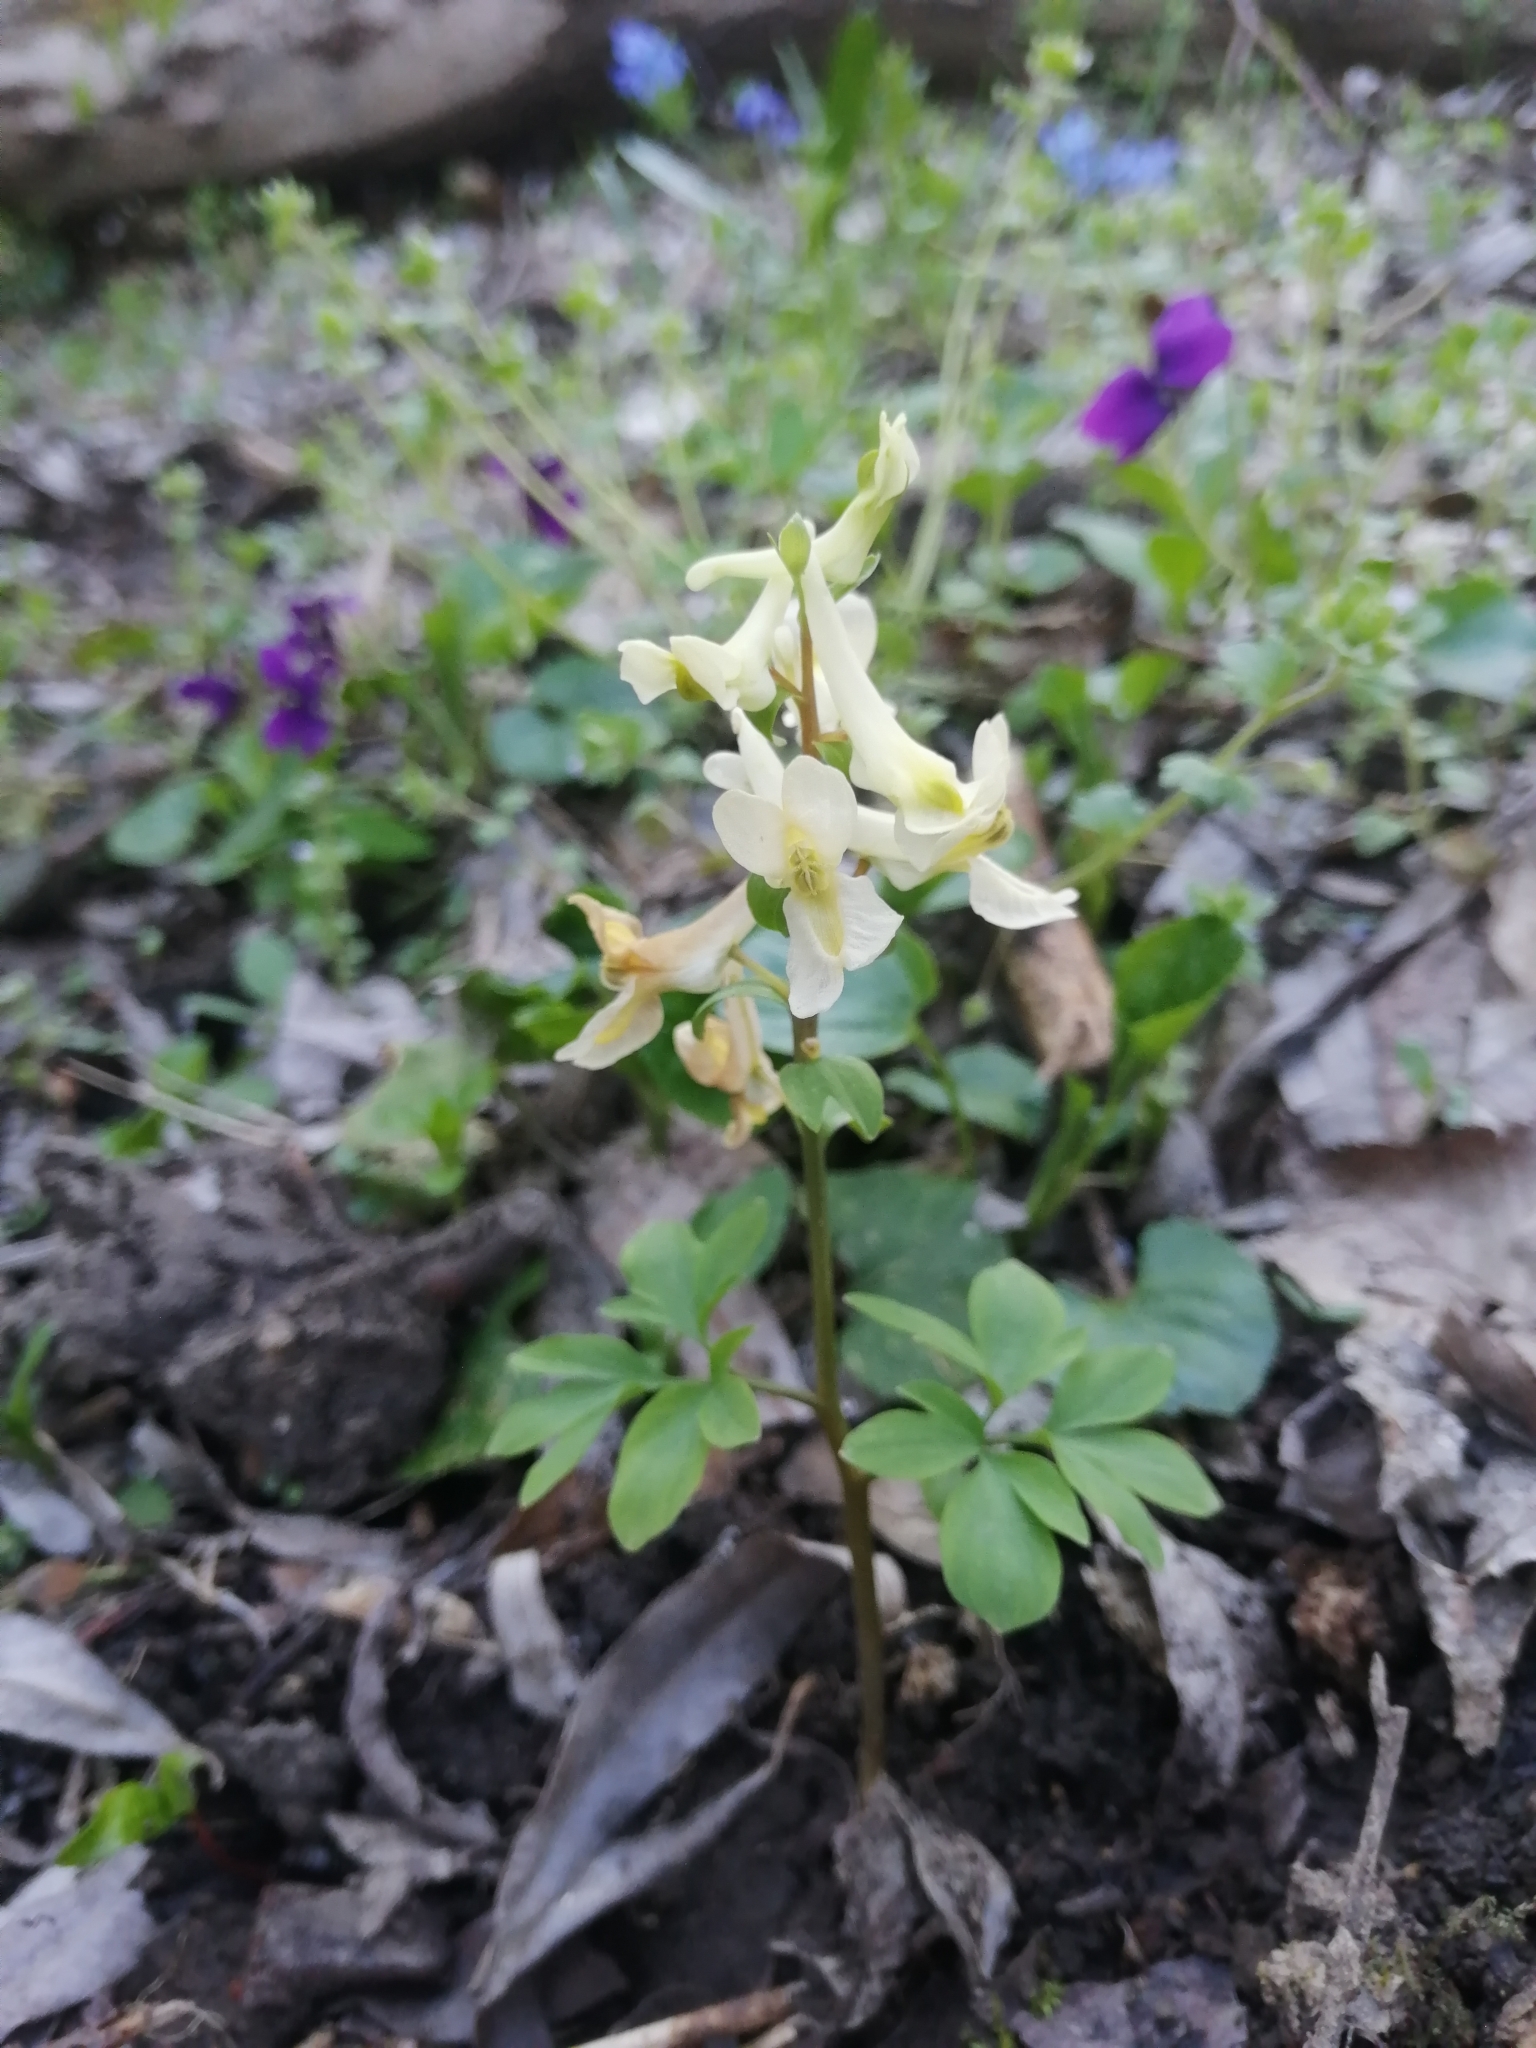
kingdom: Plantae
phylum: Tracheophyta
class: Magnoliopsida
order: Ranunculales
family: Papaveraceae
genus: Corydalis
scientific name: Corydalis cava
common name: Hollowroot
